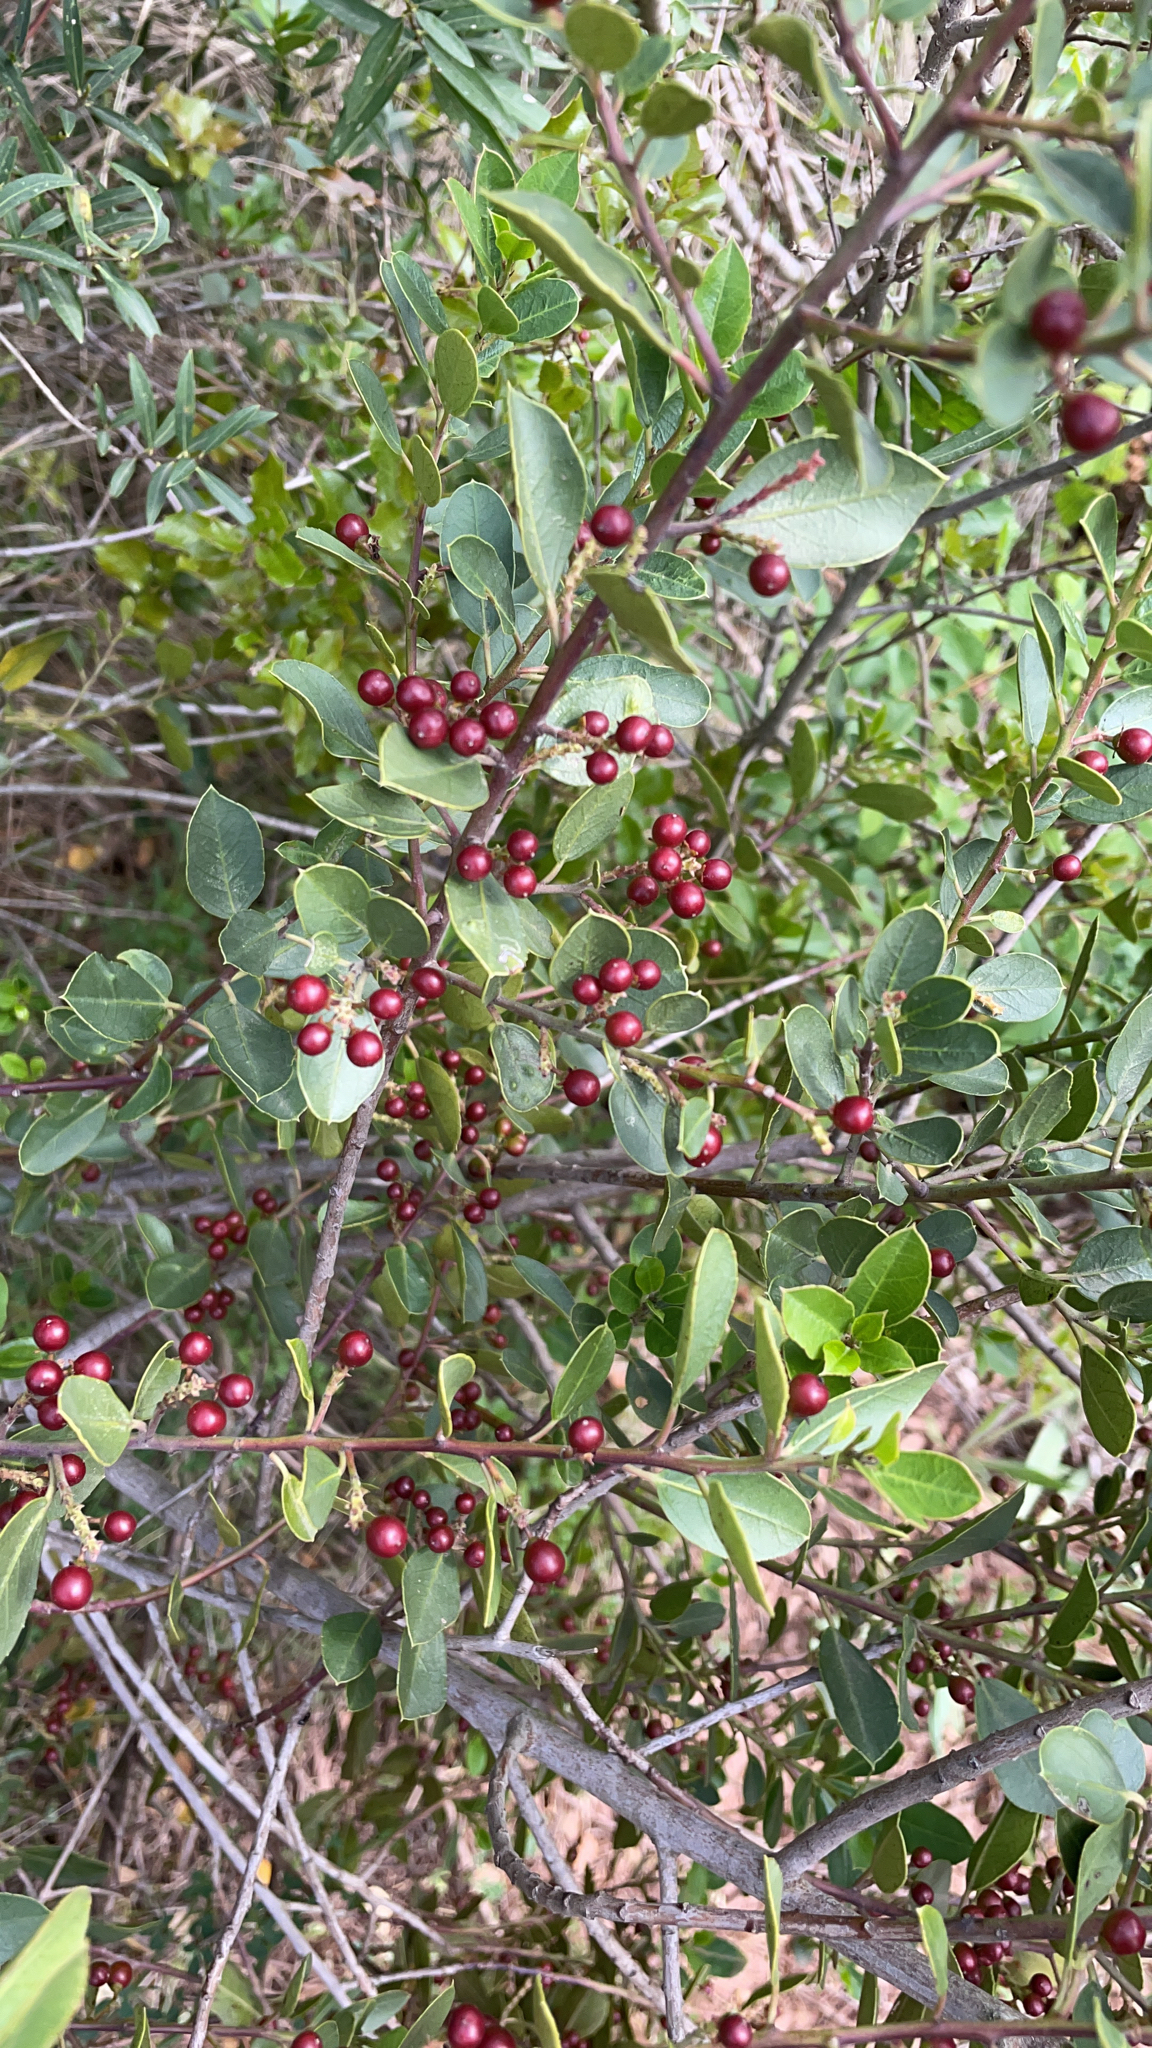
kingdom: Plantae
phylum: Tracheophyta
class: Magnoliopsida
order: Rosales
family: Rhamnaceae
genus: Rhamnus
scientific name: Rhamnus alaternus
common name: Mediterranean buckthorn
